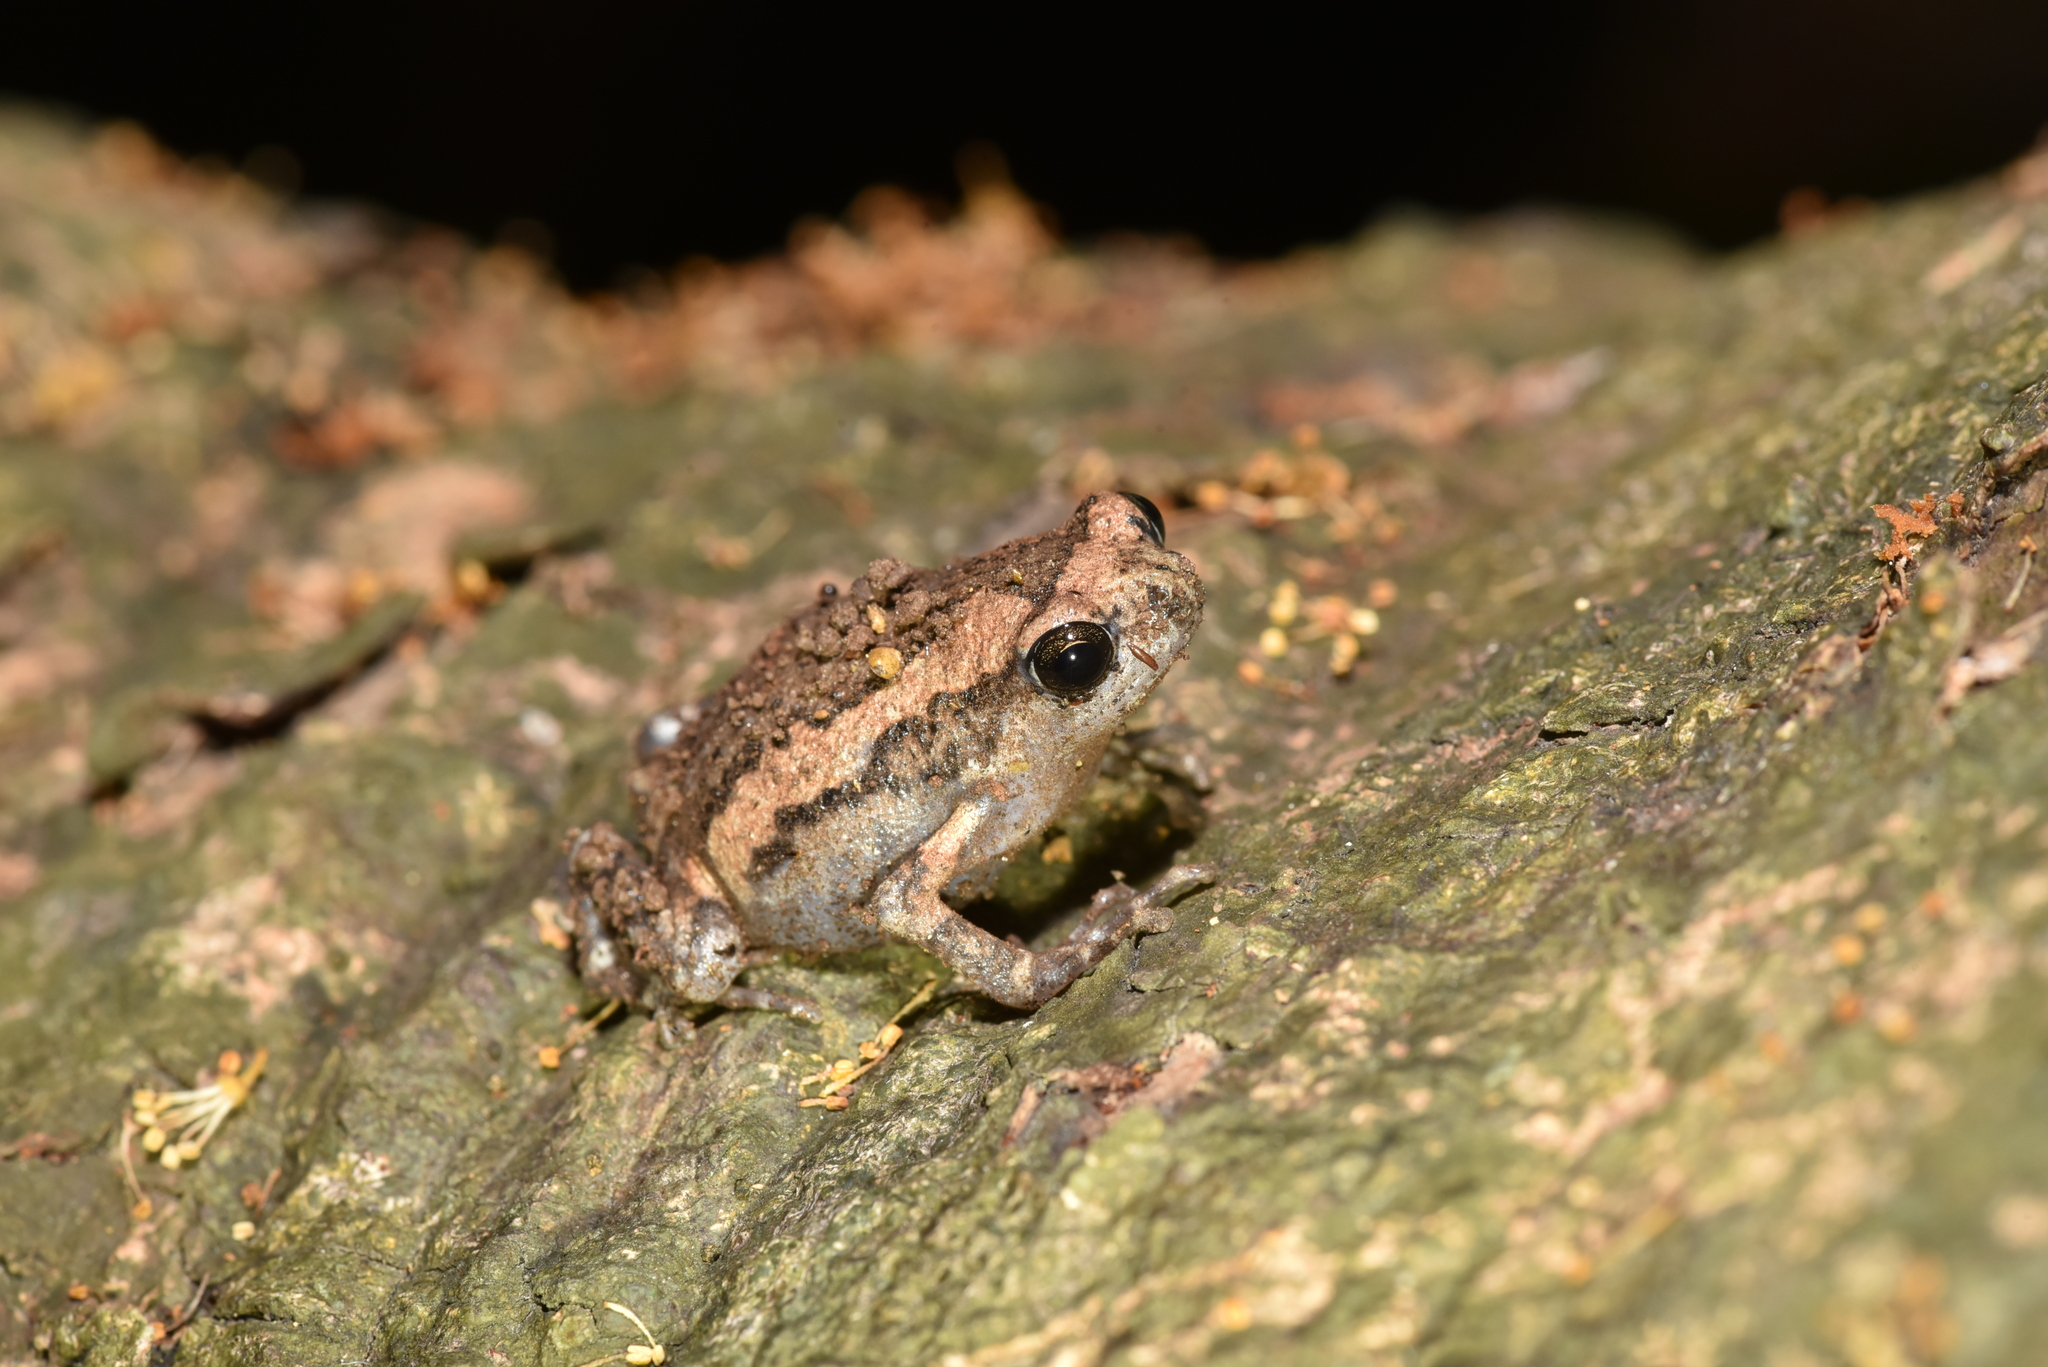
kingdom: Animalia
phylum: Chordata
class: Amphibia
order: Anura
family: Microhylidae
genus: Kaloula
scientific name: Kaloula pulchra
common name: Common,banded bullfrog
